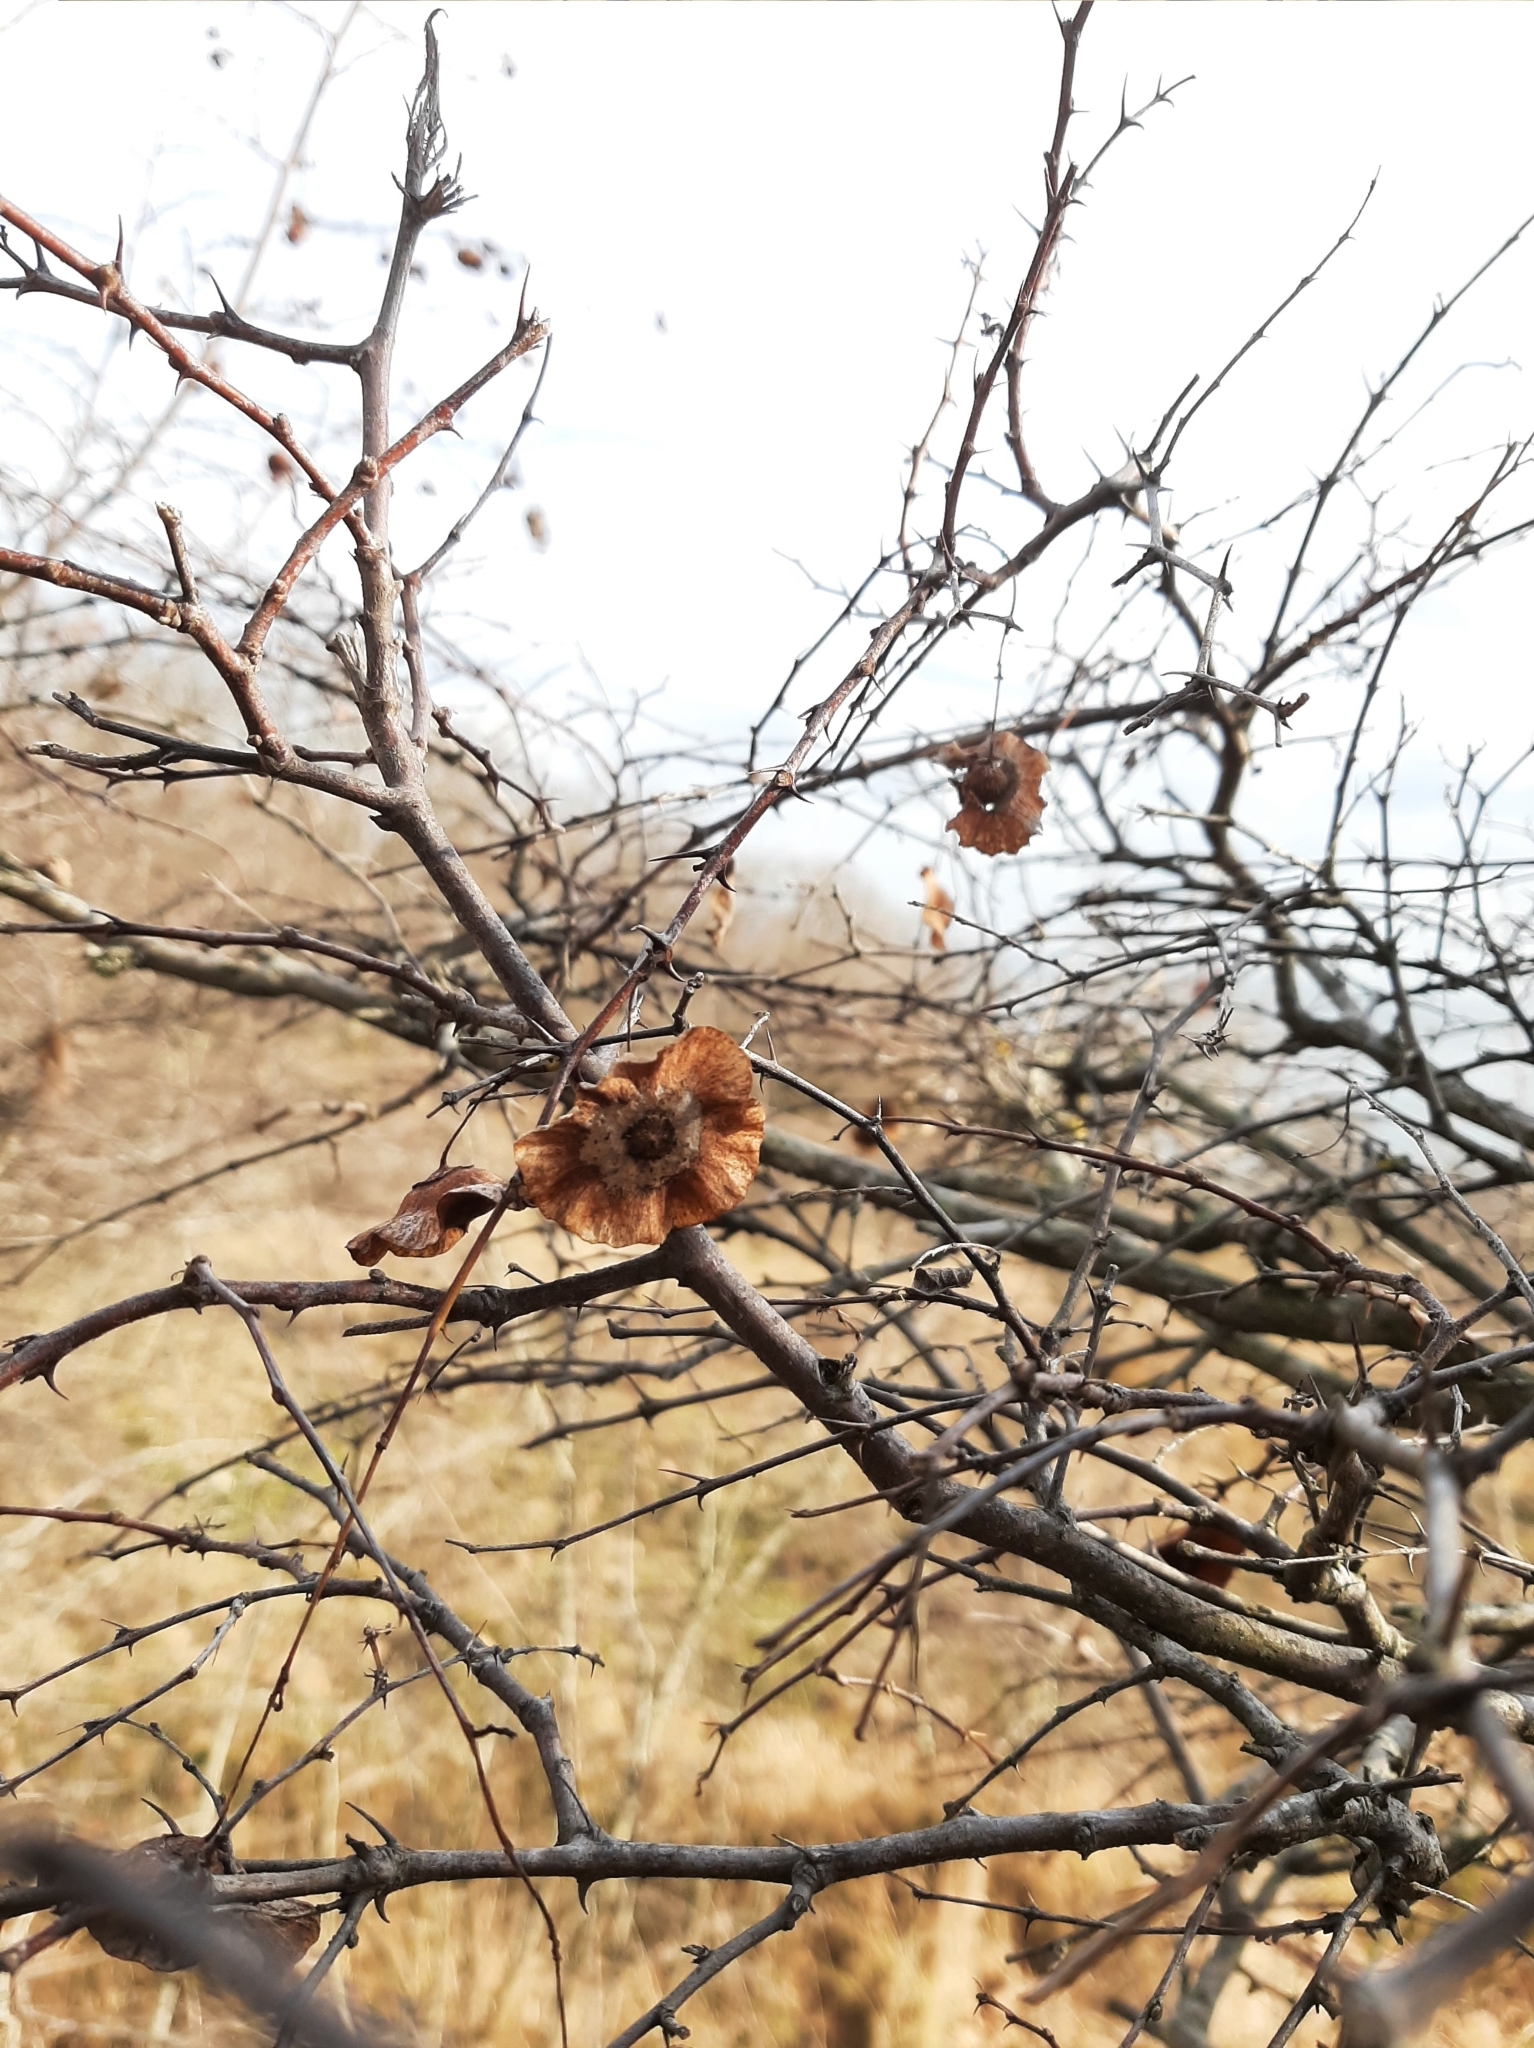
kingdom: Plantae
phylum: Tracheophyta
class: Magnoliopsida
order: Rosales
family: Rhamnaceae
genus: Paliurus
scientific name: Paliurus spina-christi
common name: Jeruselem thorn
